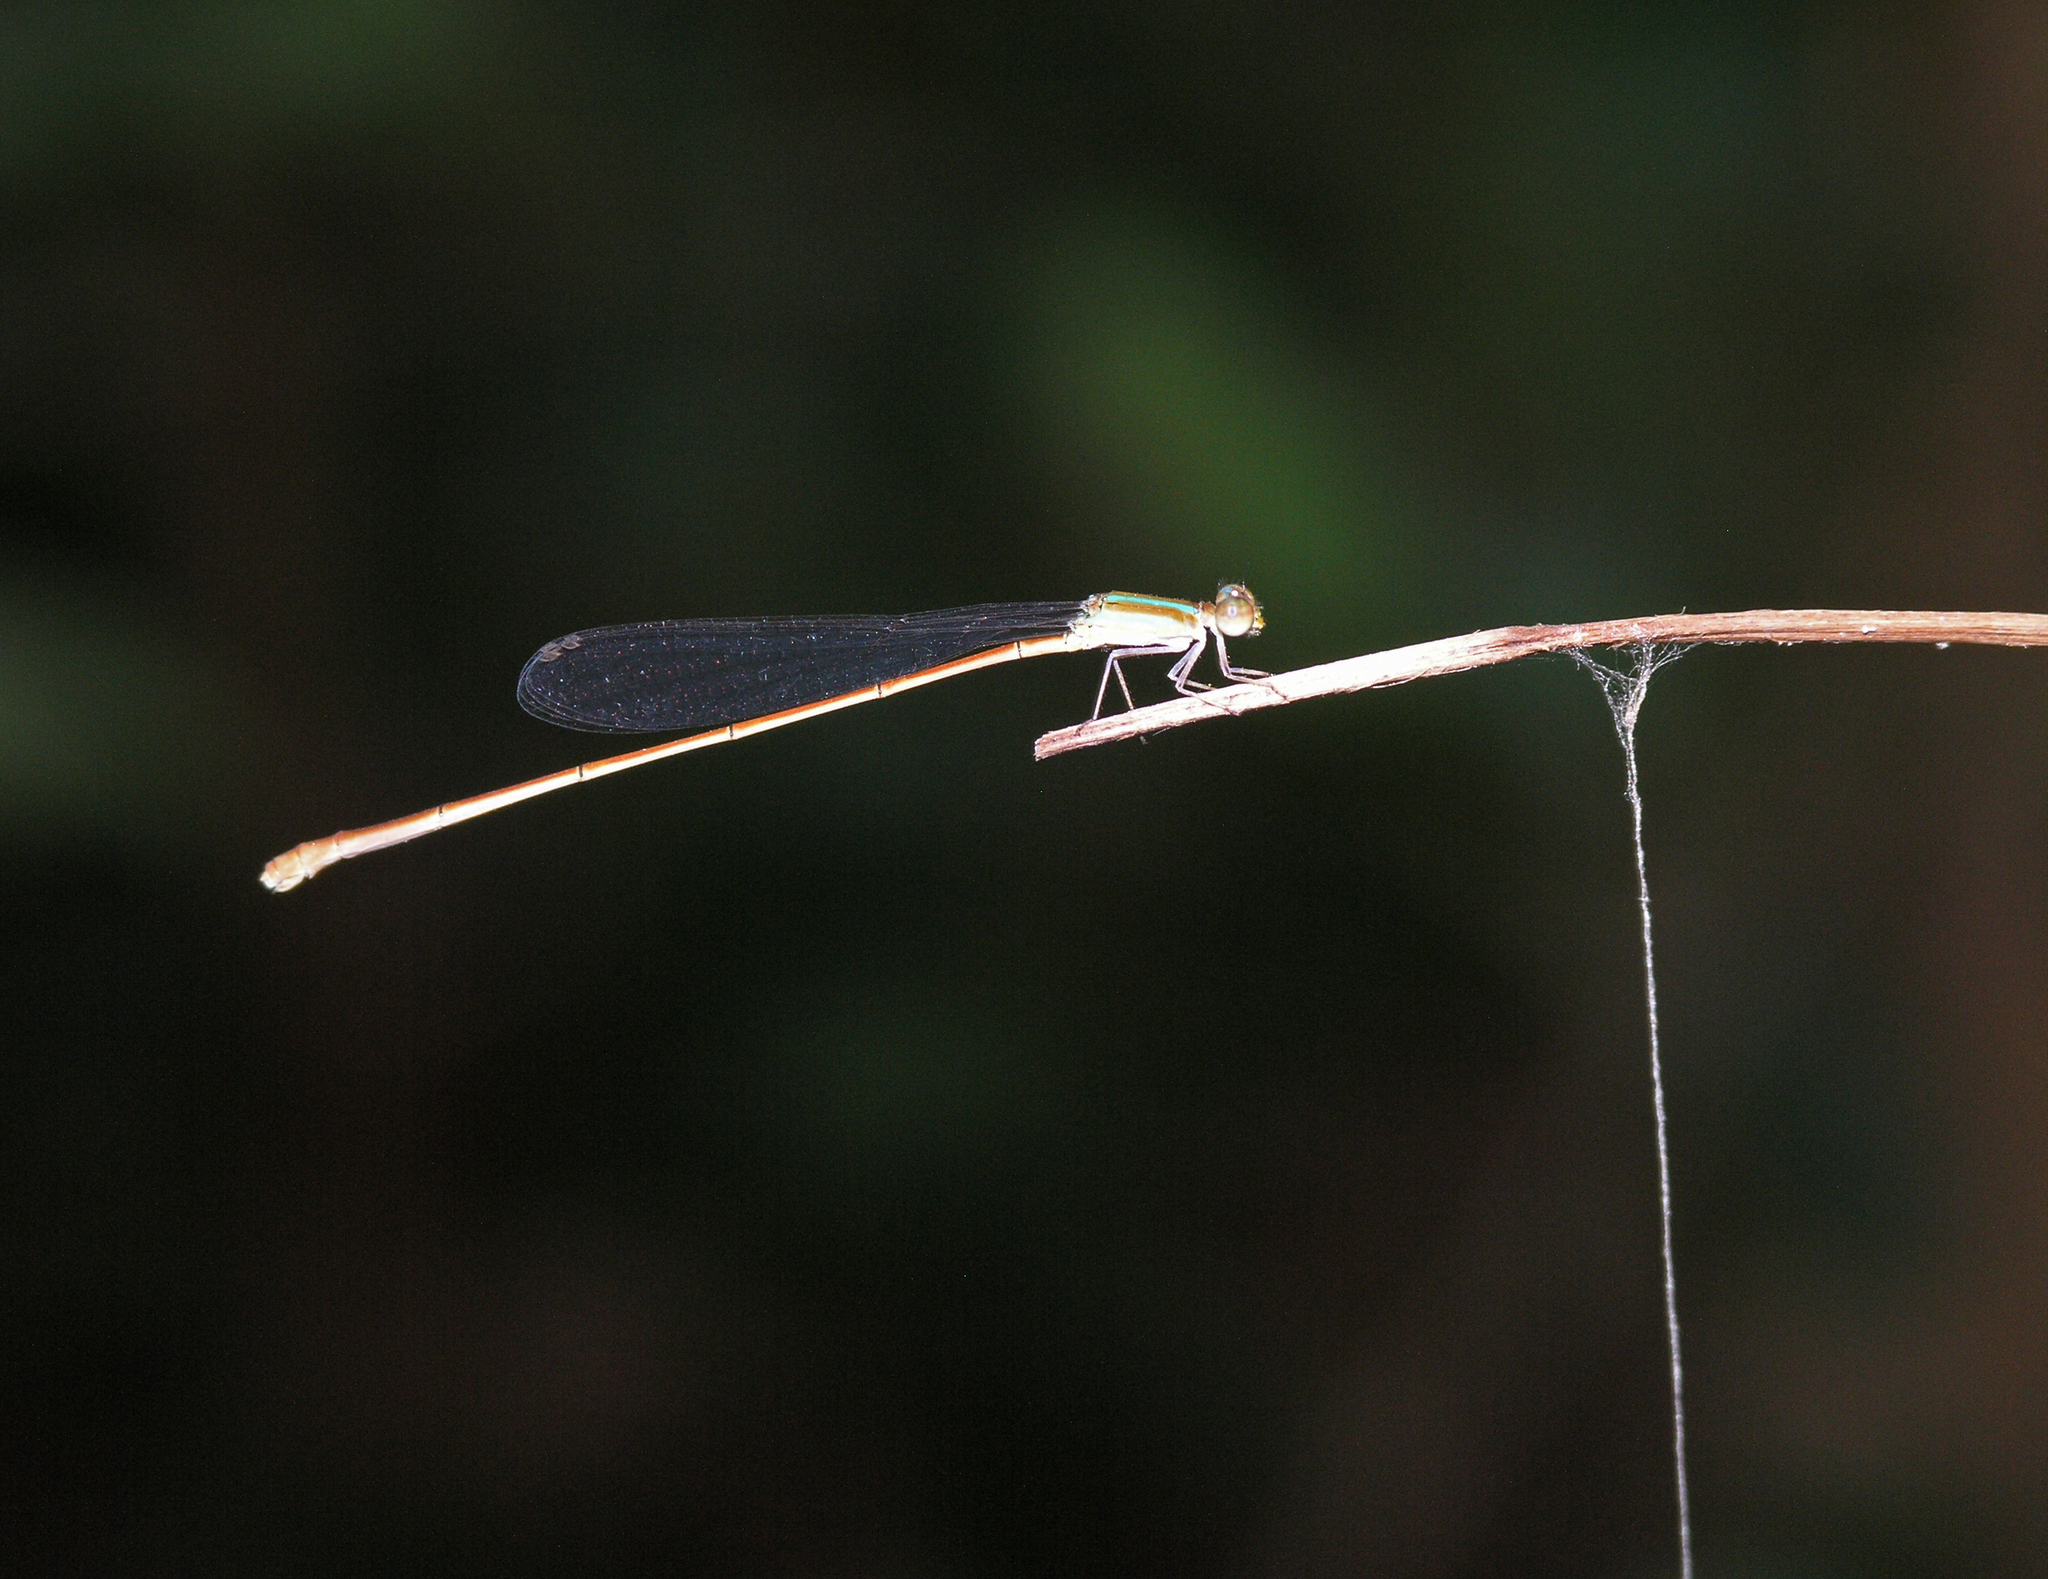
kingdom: Animalia
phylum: Arthropoda
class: Insecta
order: Odonata
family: Coenagrionidae
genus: Aciagrion
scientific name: Aciagrion pallidum
